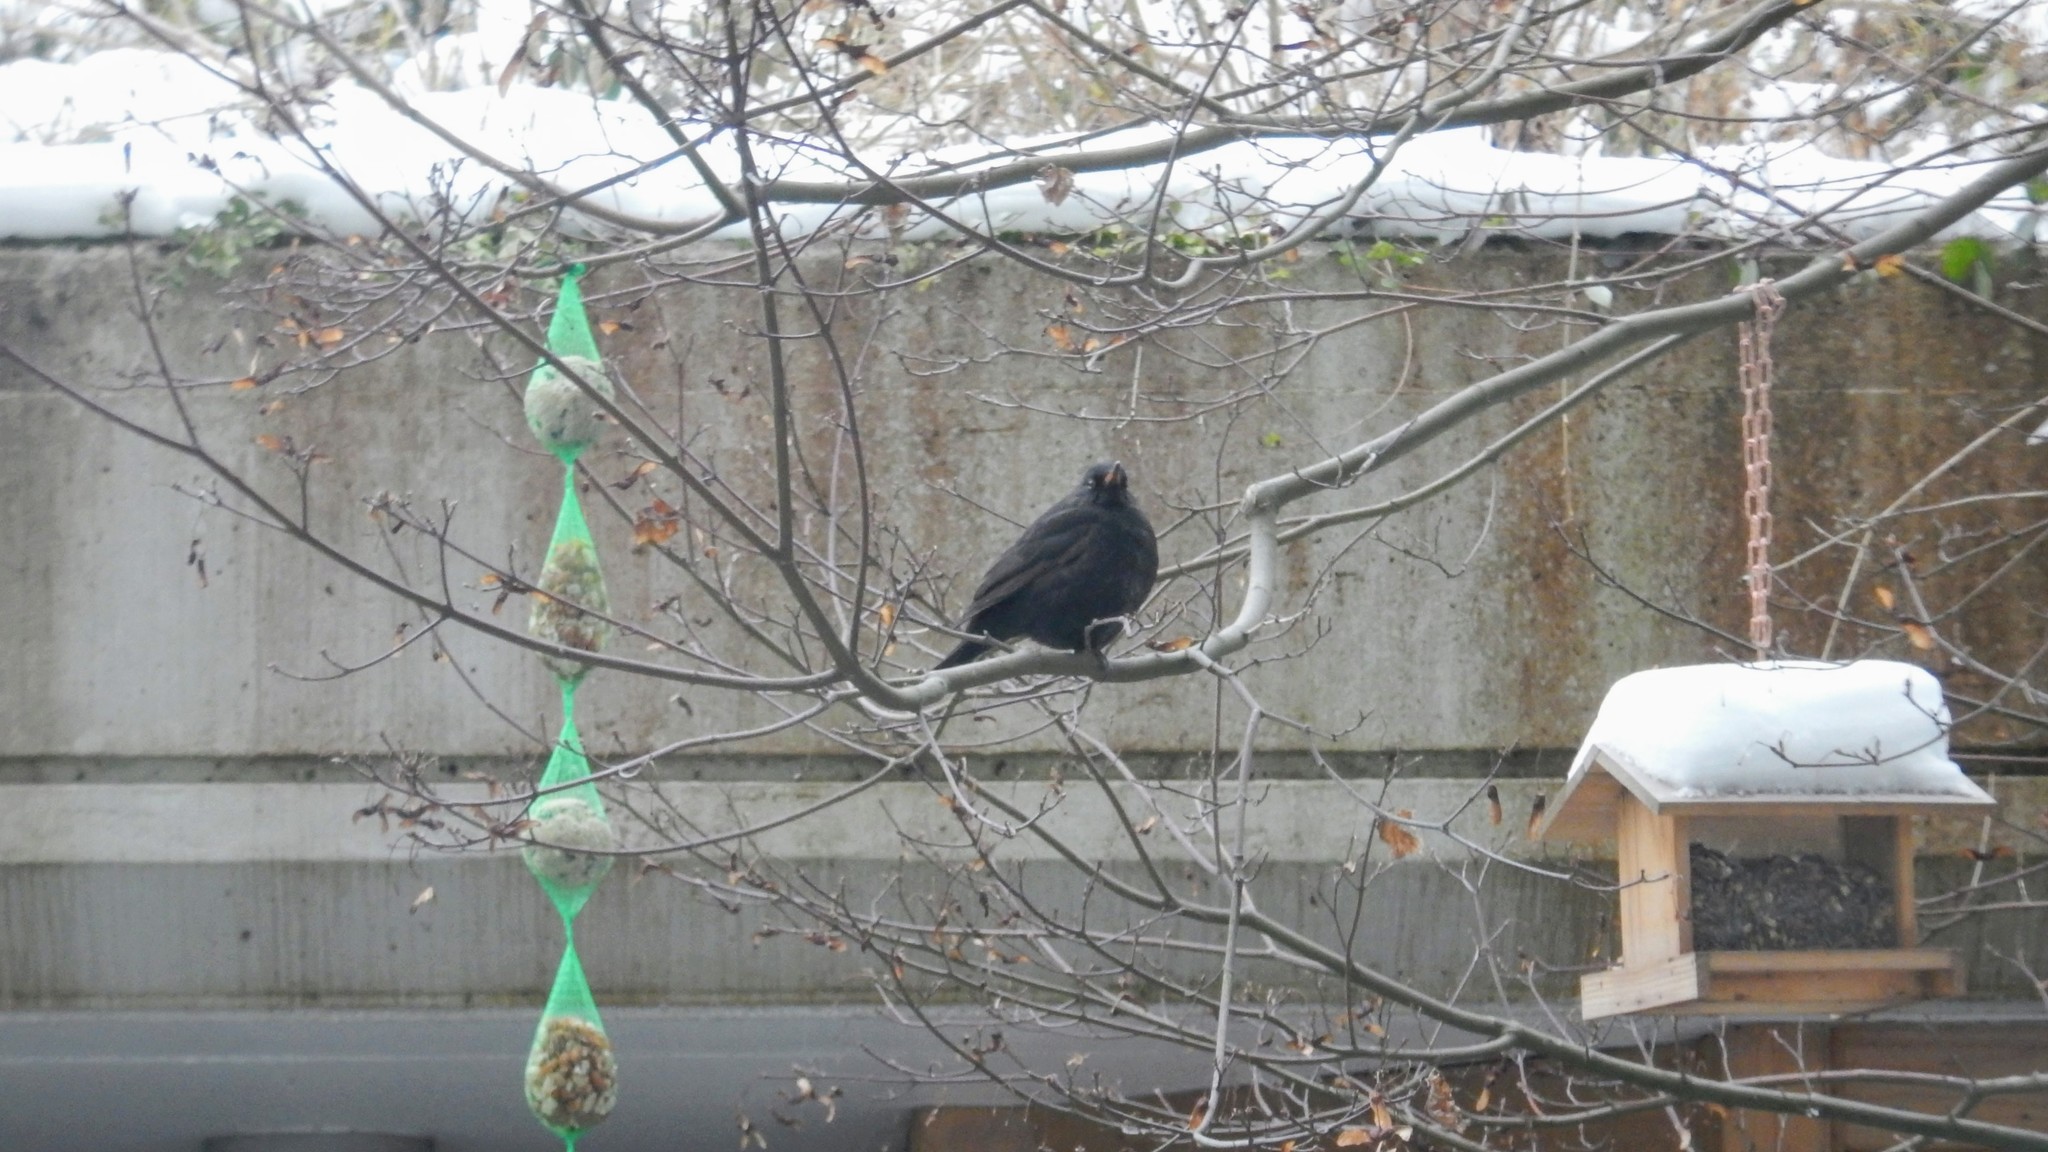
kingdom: Animalia
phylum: Chordata
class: Aves
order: Passeriformes
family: Turdidae
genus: Turdus
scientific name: Turdus merula
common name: Common blackbird
